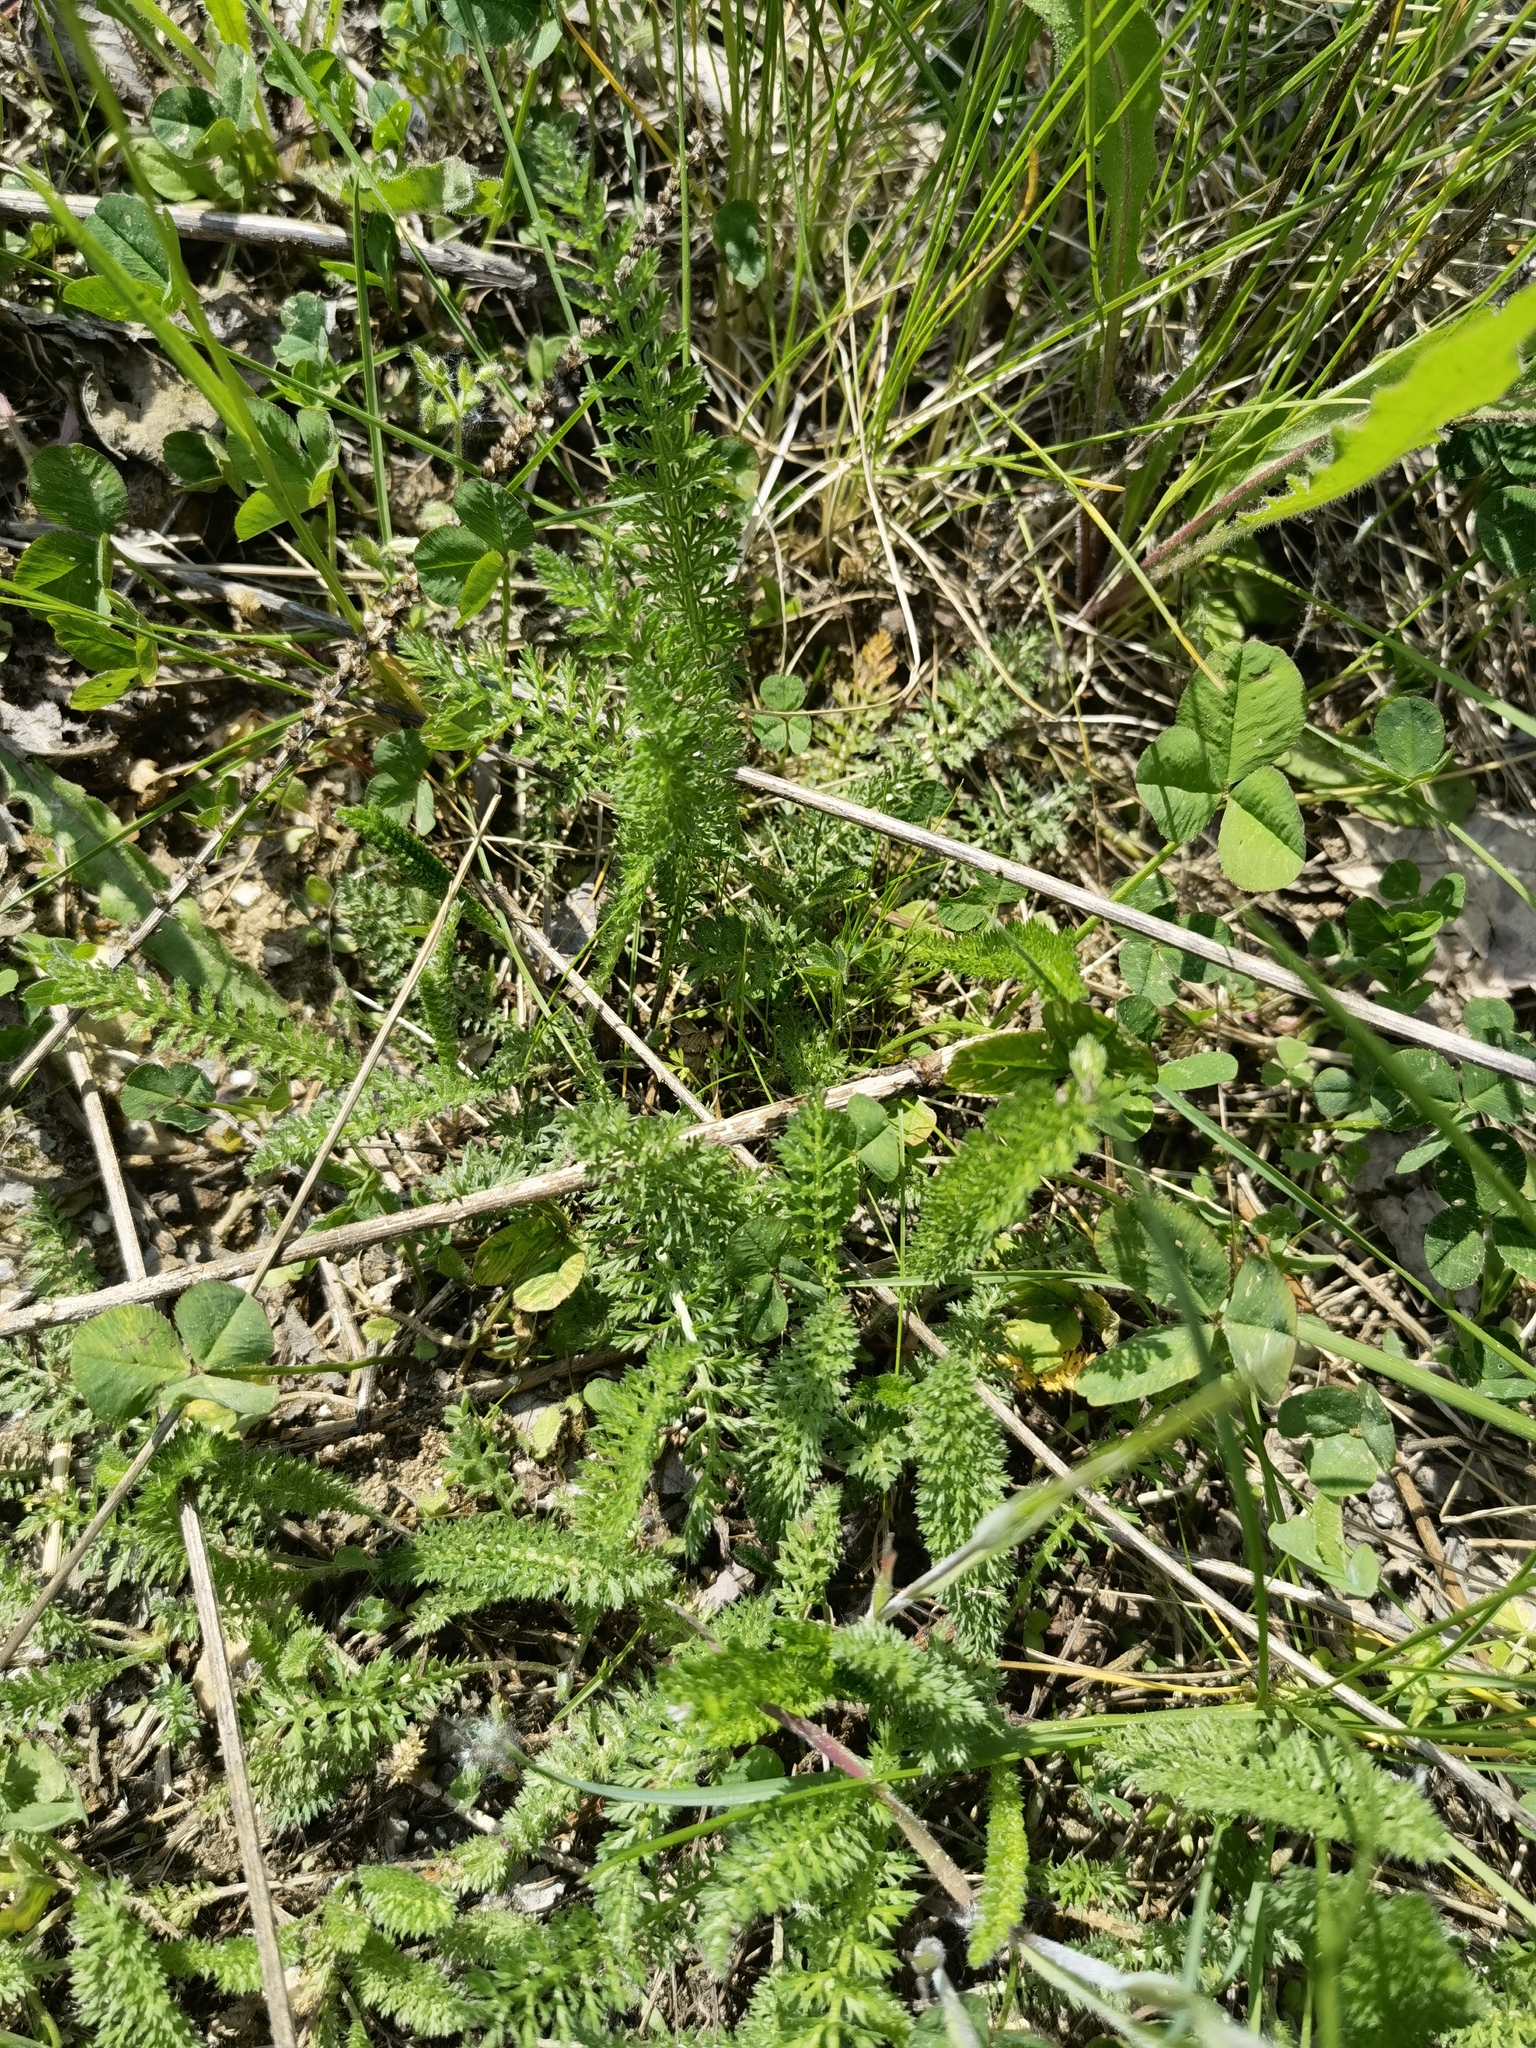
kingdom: Plantae
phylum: Tracheophyta
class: Magnoliopsida
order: Asterales
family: Asteraceae
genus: Achillea
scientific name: Achillea millefolium
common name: Yarrow
